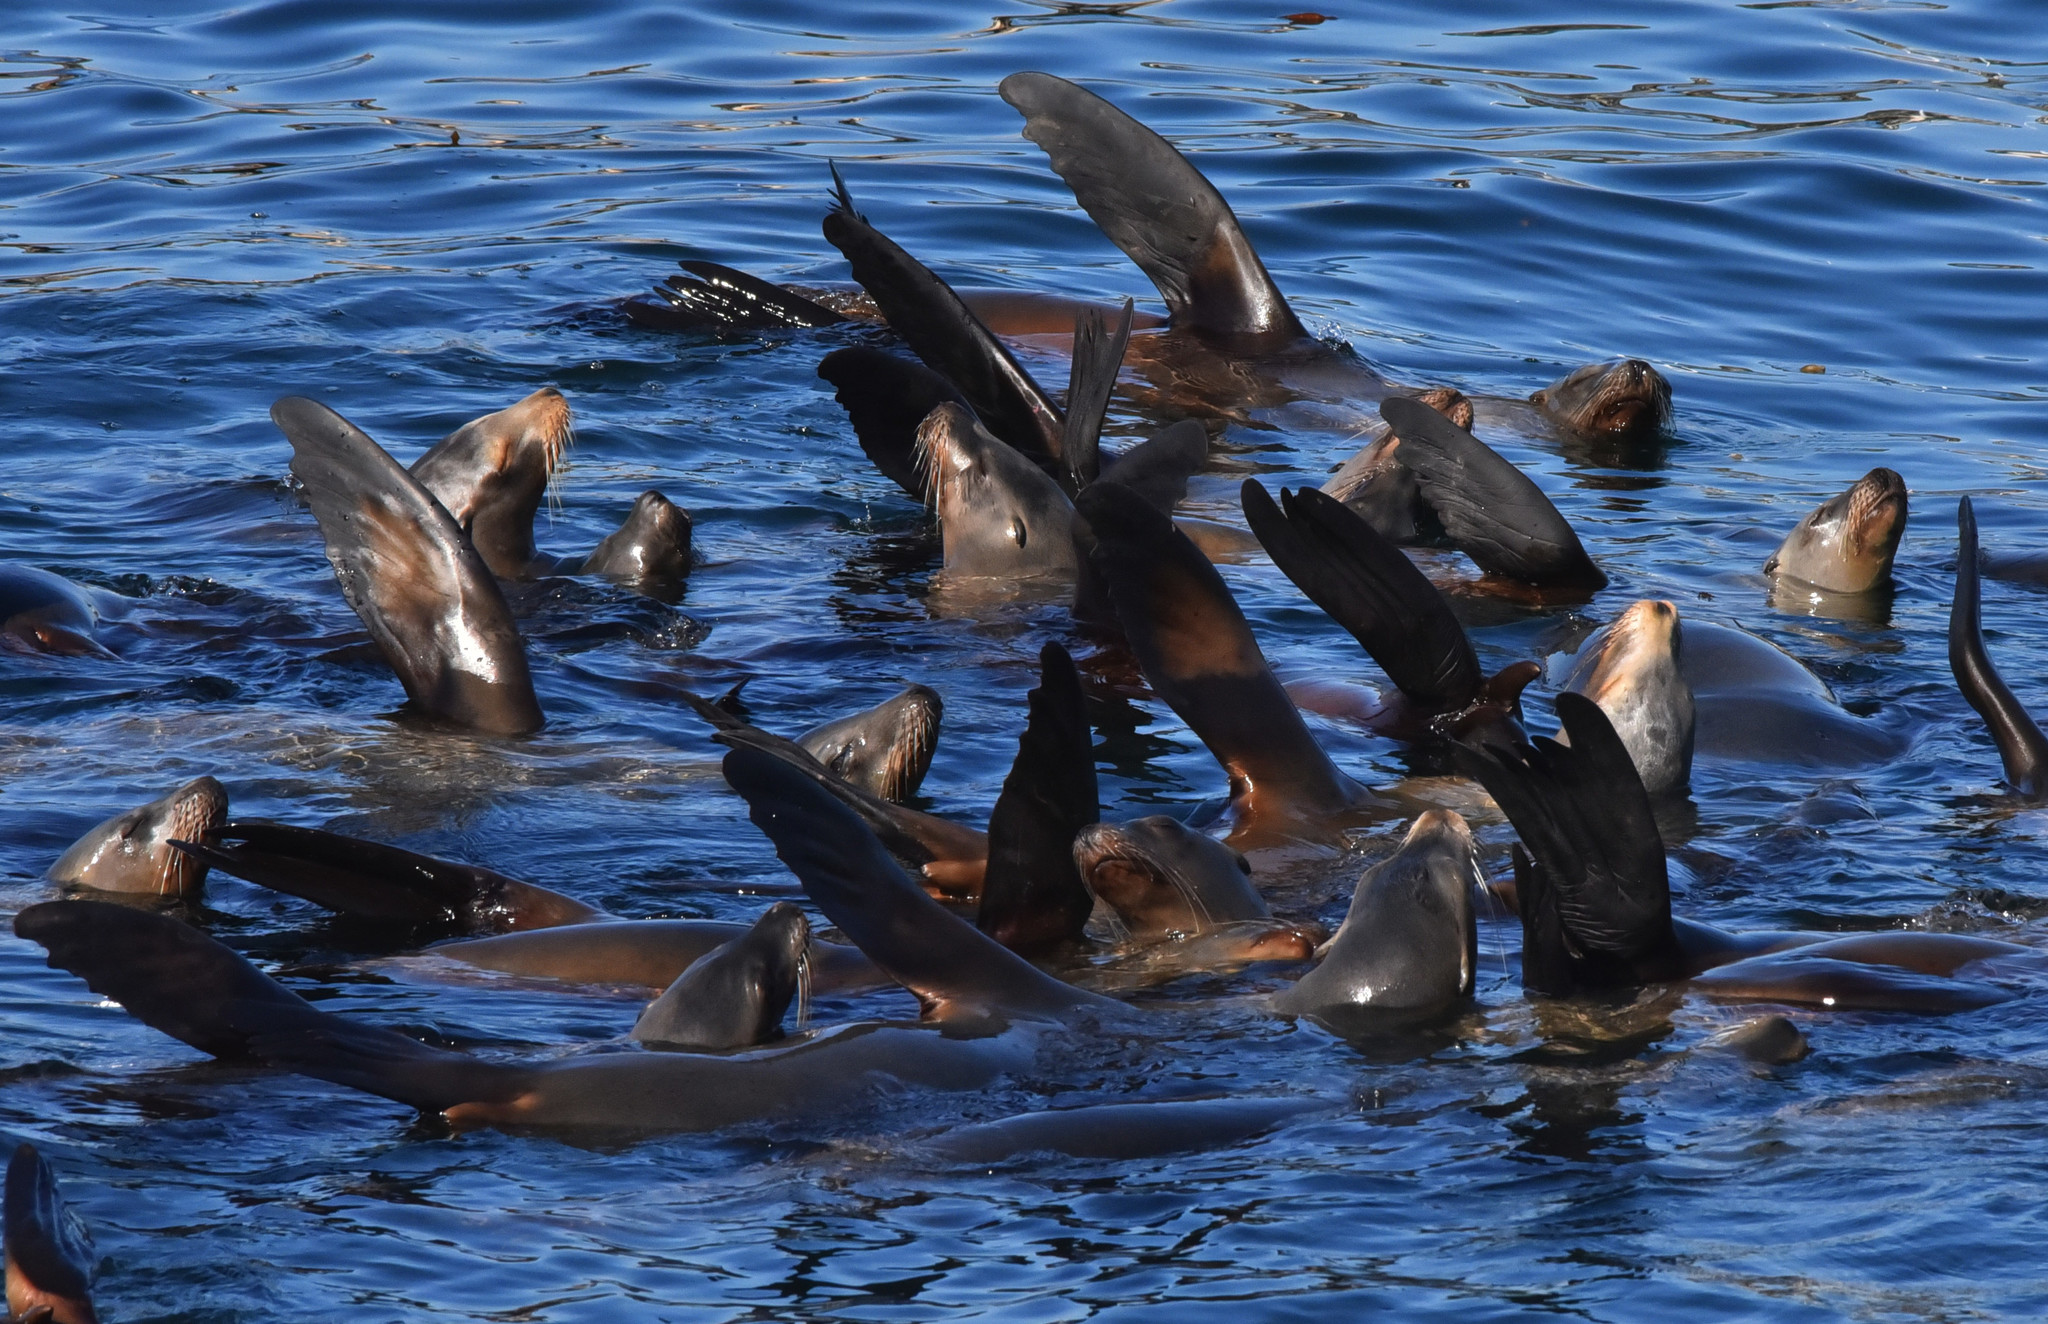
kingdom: Animalia
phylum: Chordata
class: Mammalia
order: Carnivora
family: Otariidae
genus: Zalophus
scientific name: Zalophus californianus
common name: California sea lion
